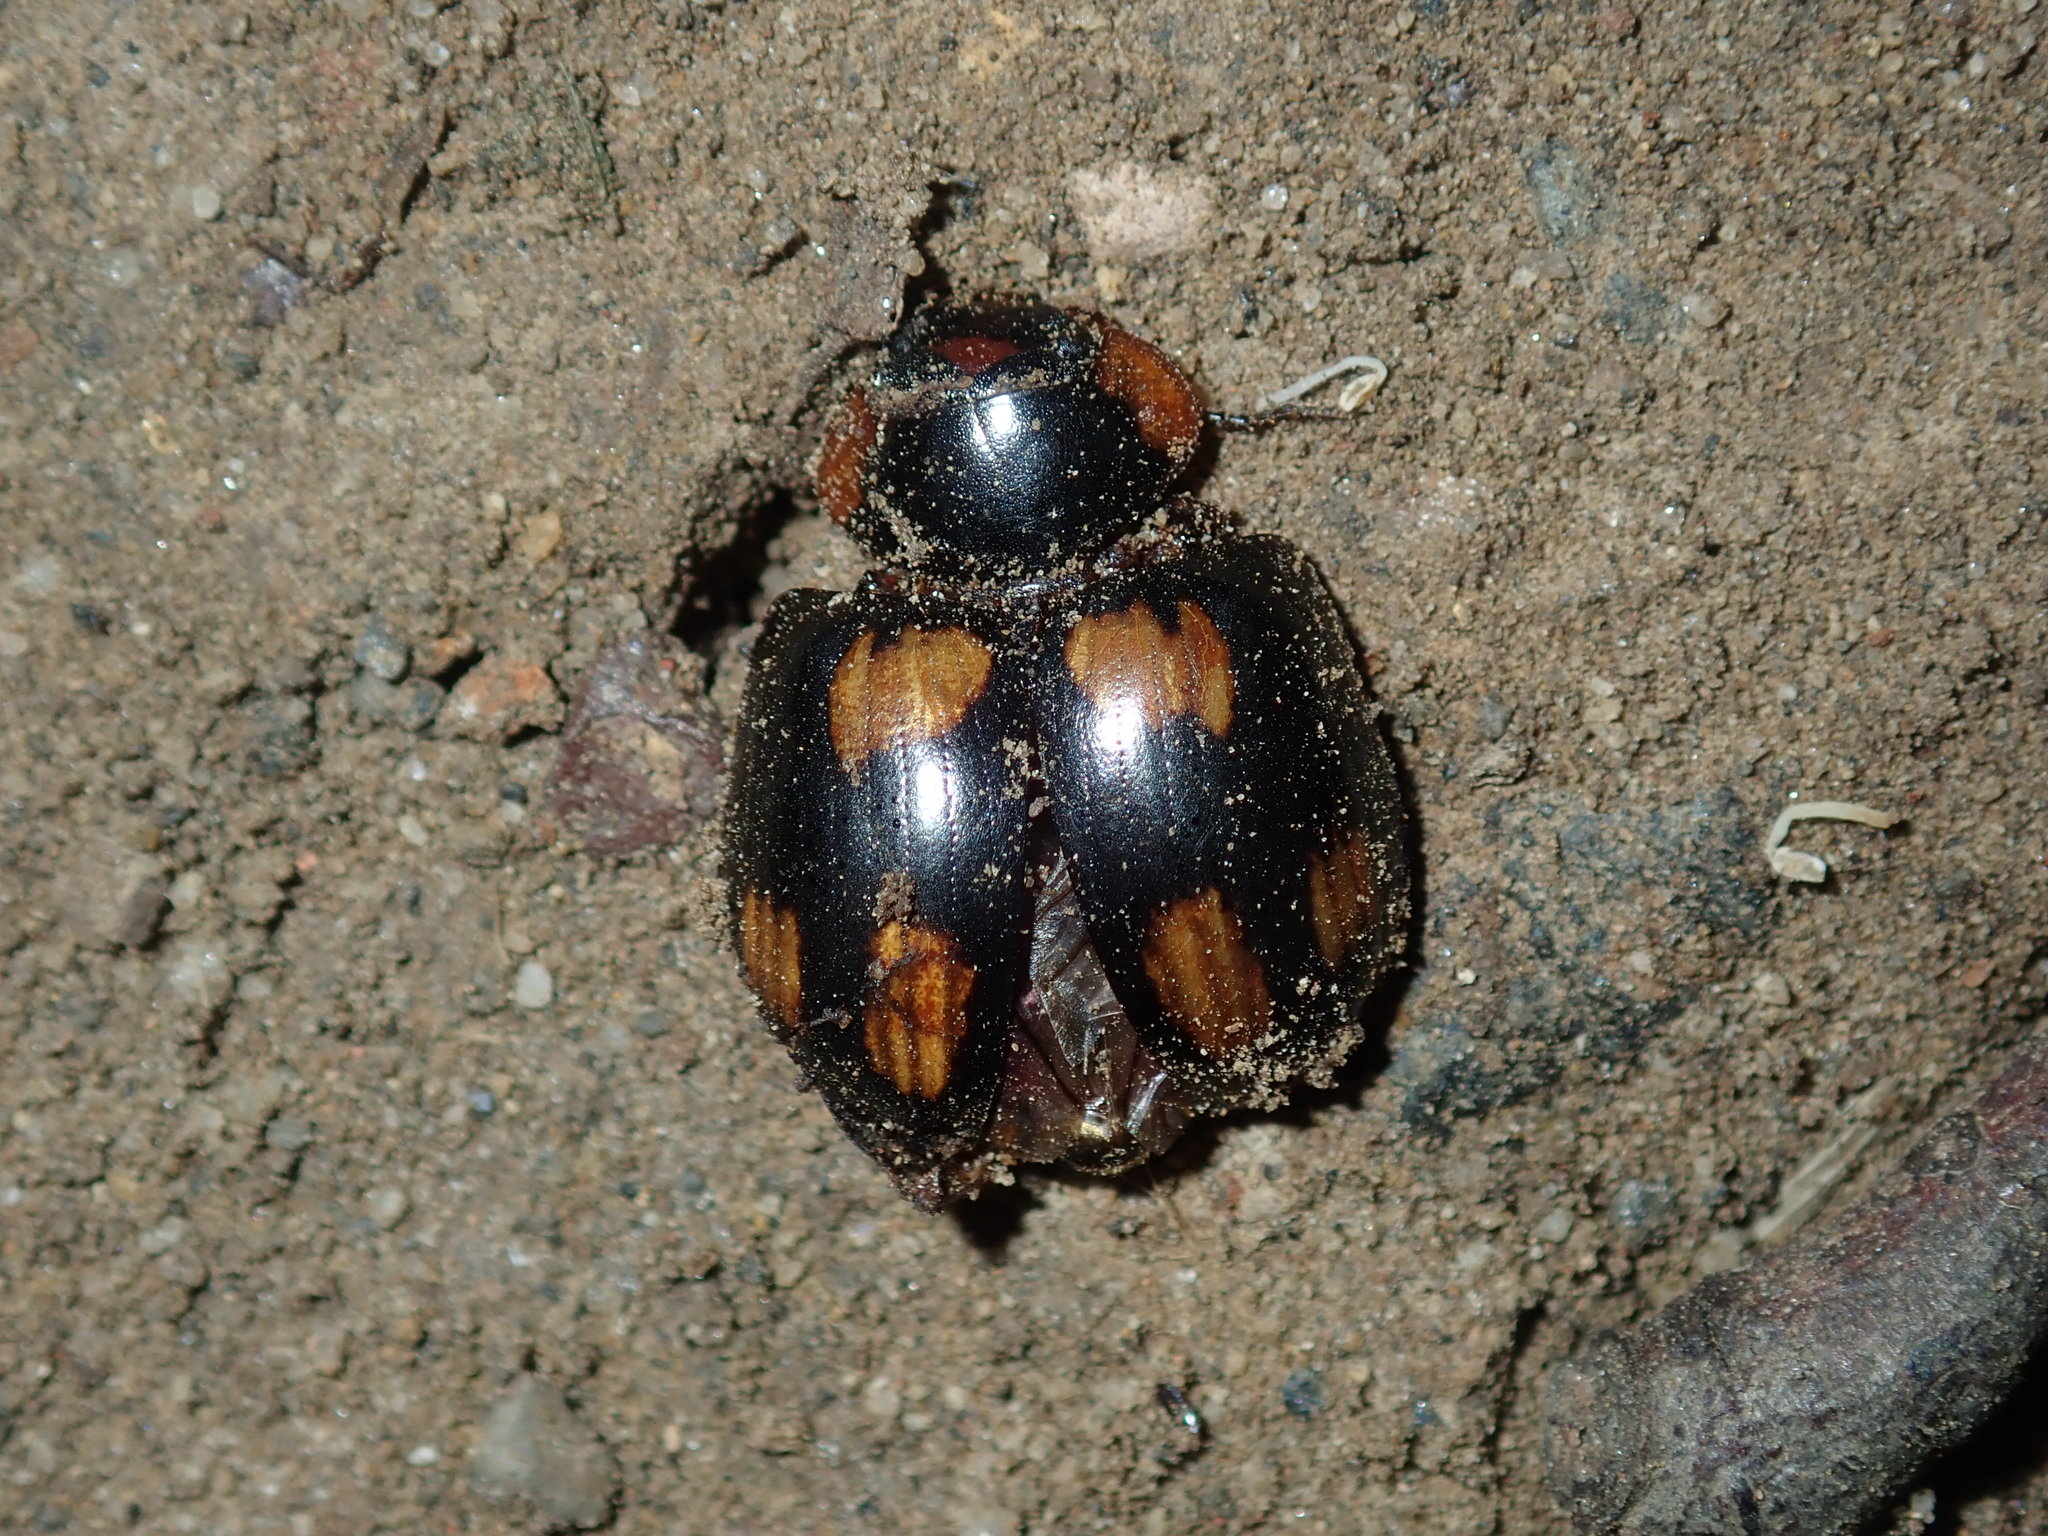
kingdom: Animalia
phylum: Arthropoda
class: Insecta
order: Coleoptera
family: Chrysomelidae
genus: Paropsisterna
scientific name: Paropsisterna
